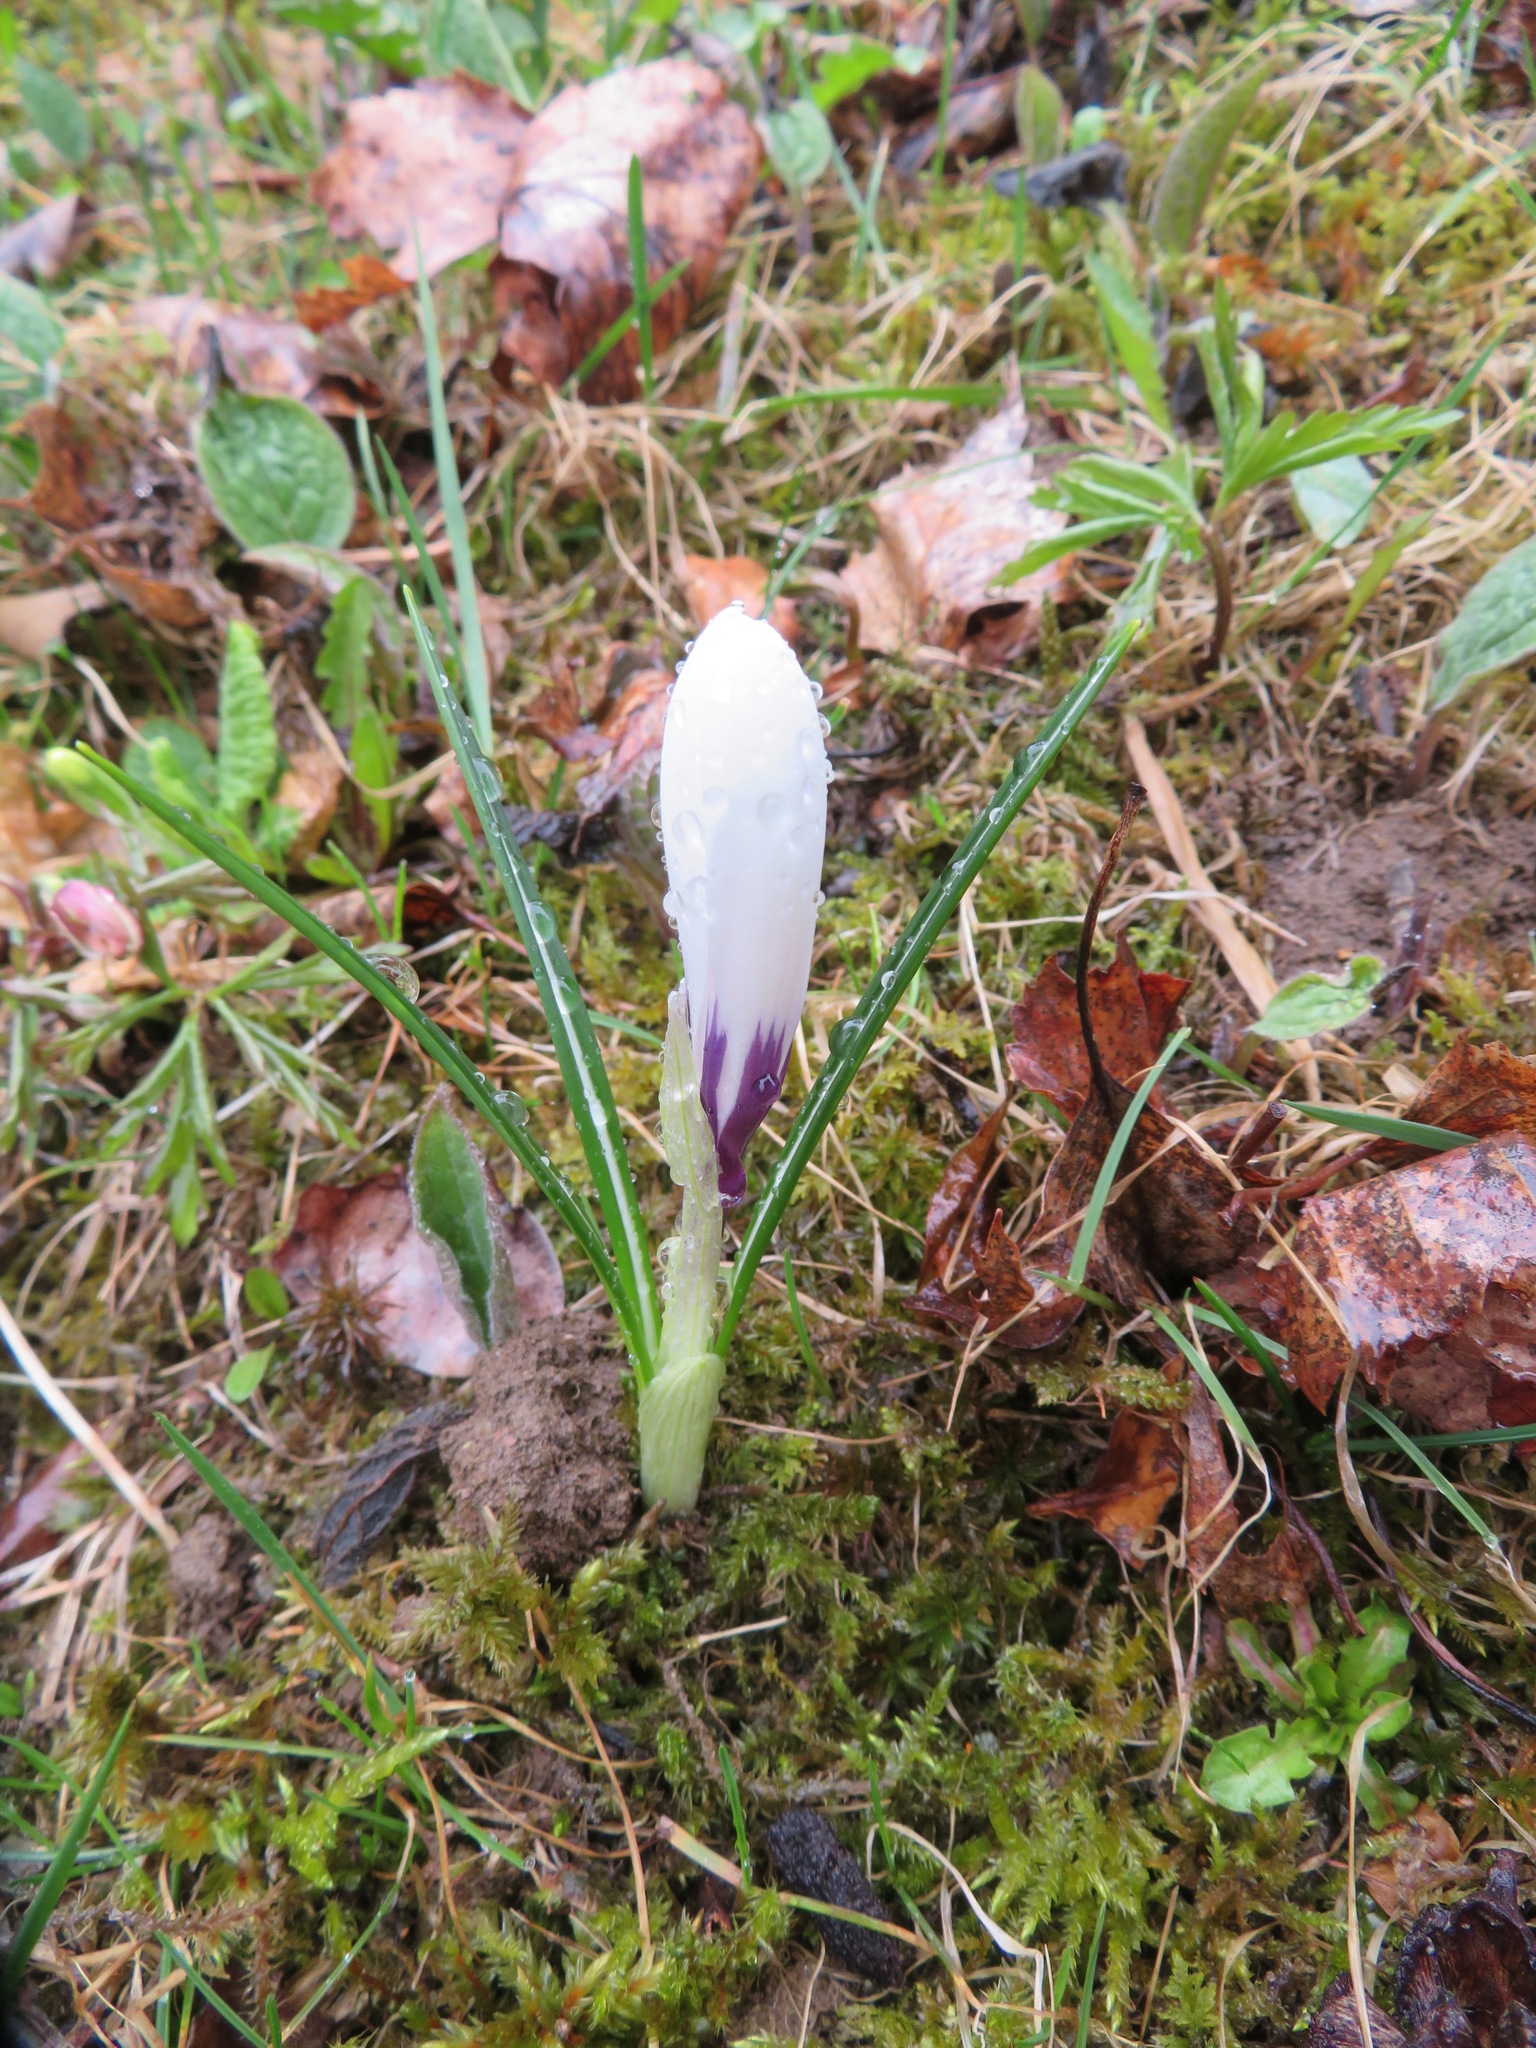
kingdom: Plantae
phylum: Tracheophyta
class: Liliopsida
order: Asparagales
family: Iridaceae
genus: Crocus
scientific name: Crocus vernus
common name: Spring crocus
